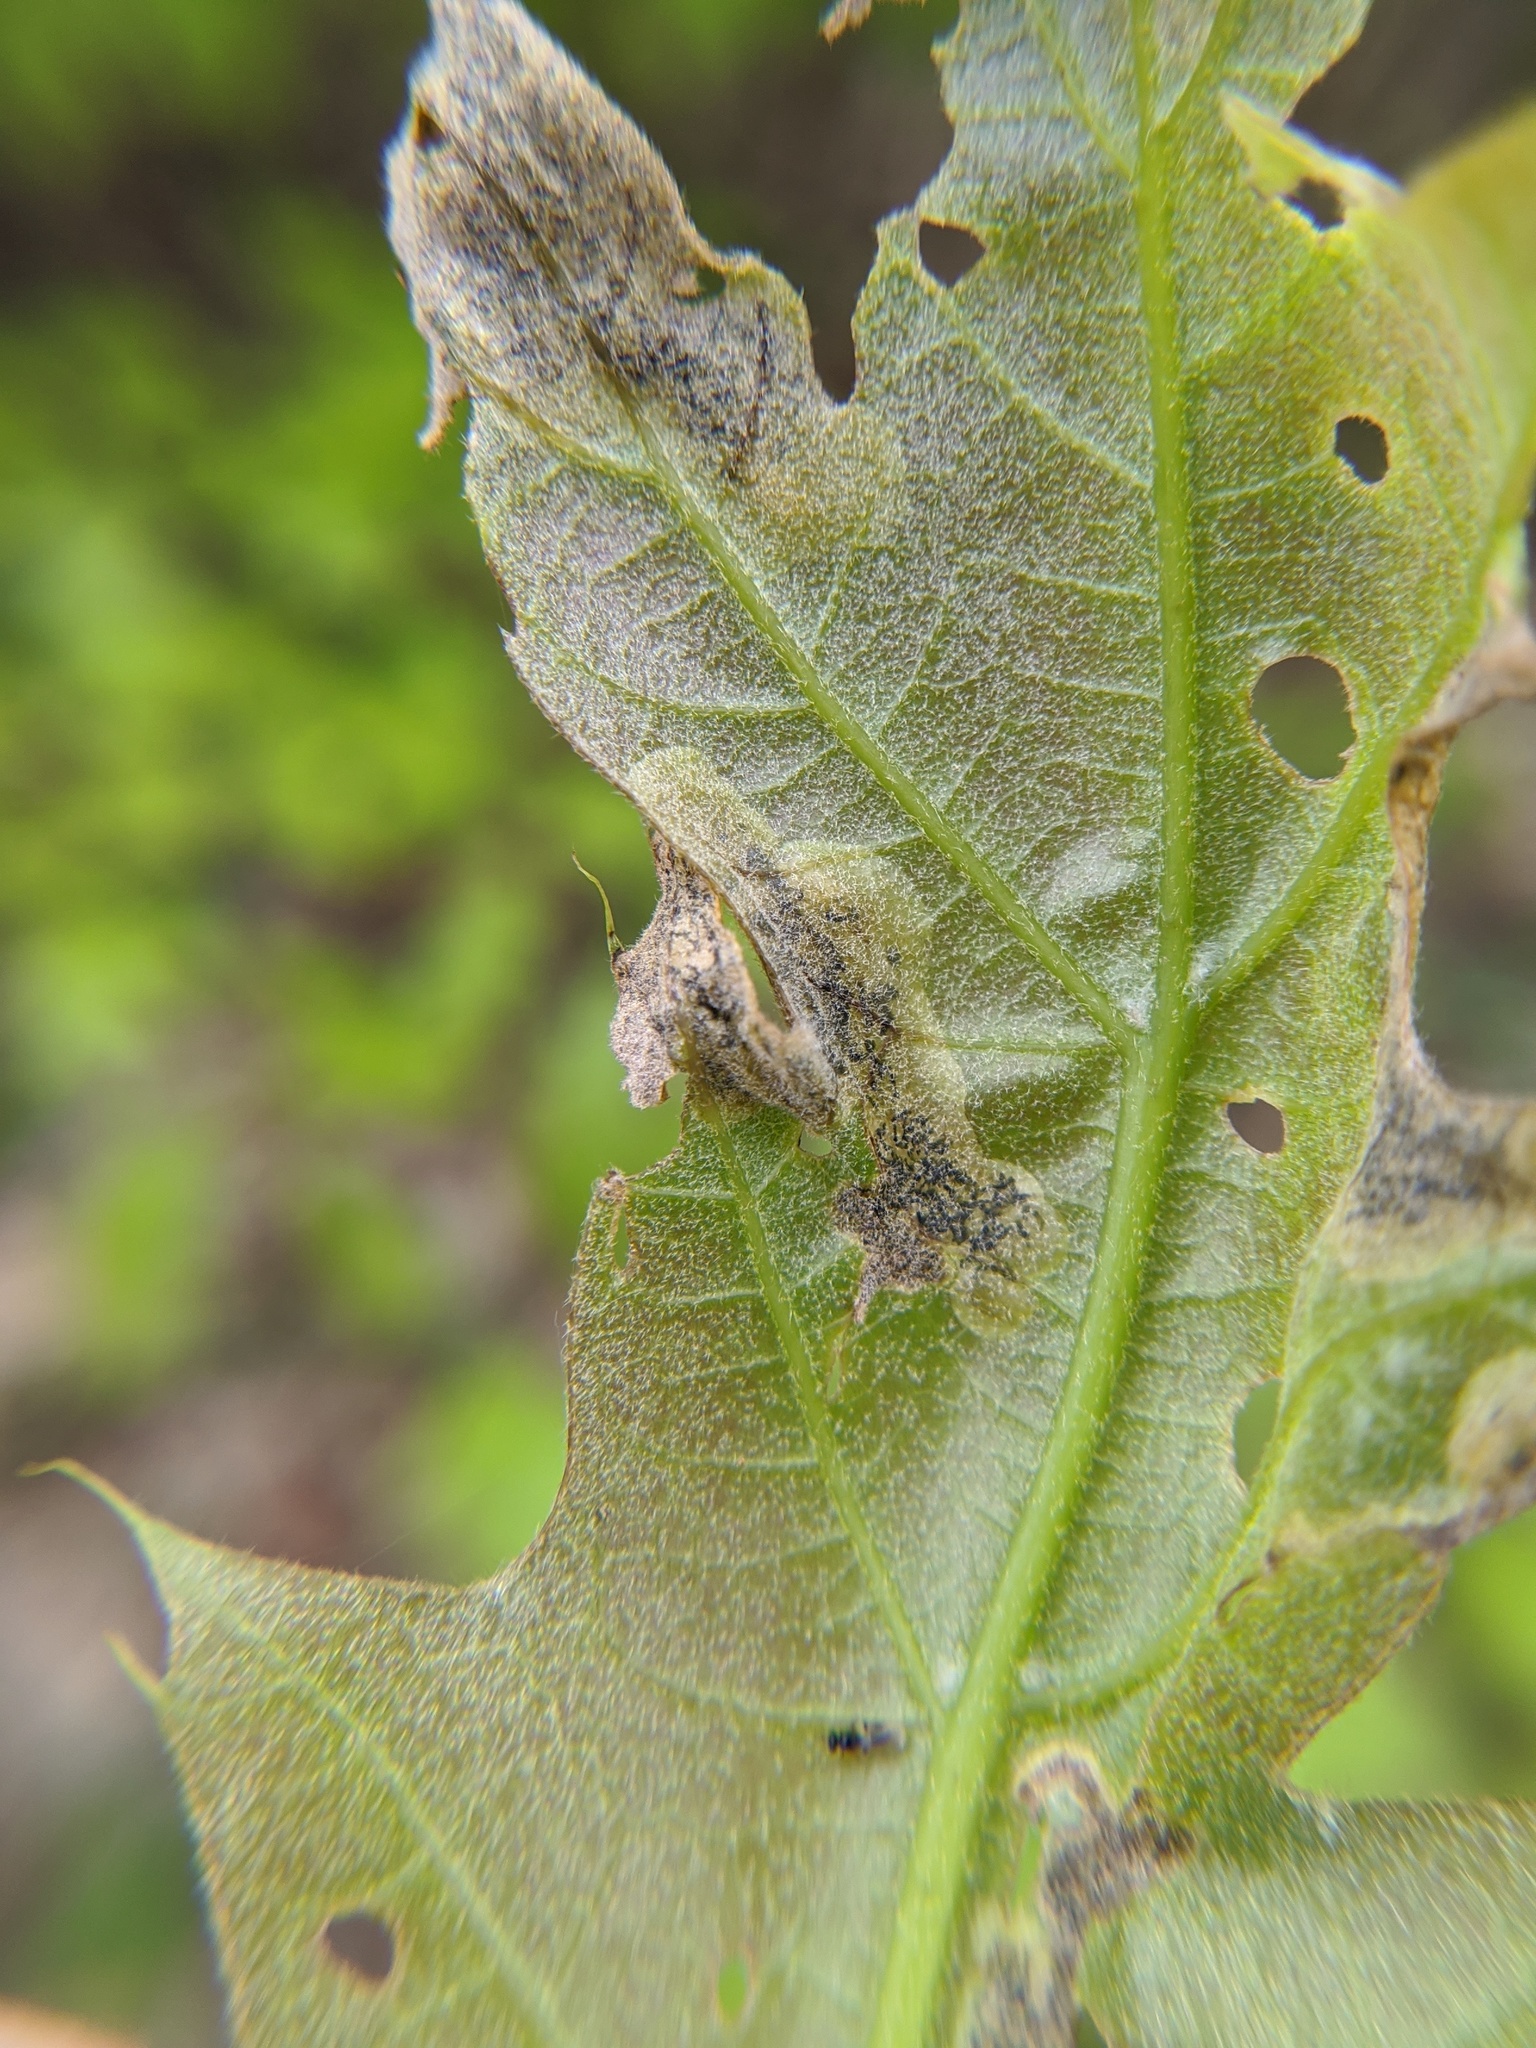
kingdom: Animalia
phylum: Arthropoda
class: Insecta
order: Diptera
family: Agromyzidae
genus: Japanagromyza
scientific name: Japanagromyza viridula
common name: Oak shothole leafminer
